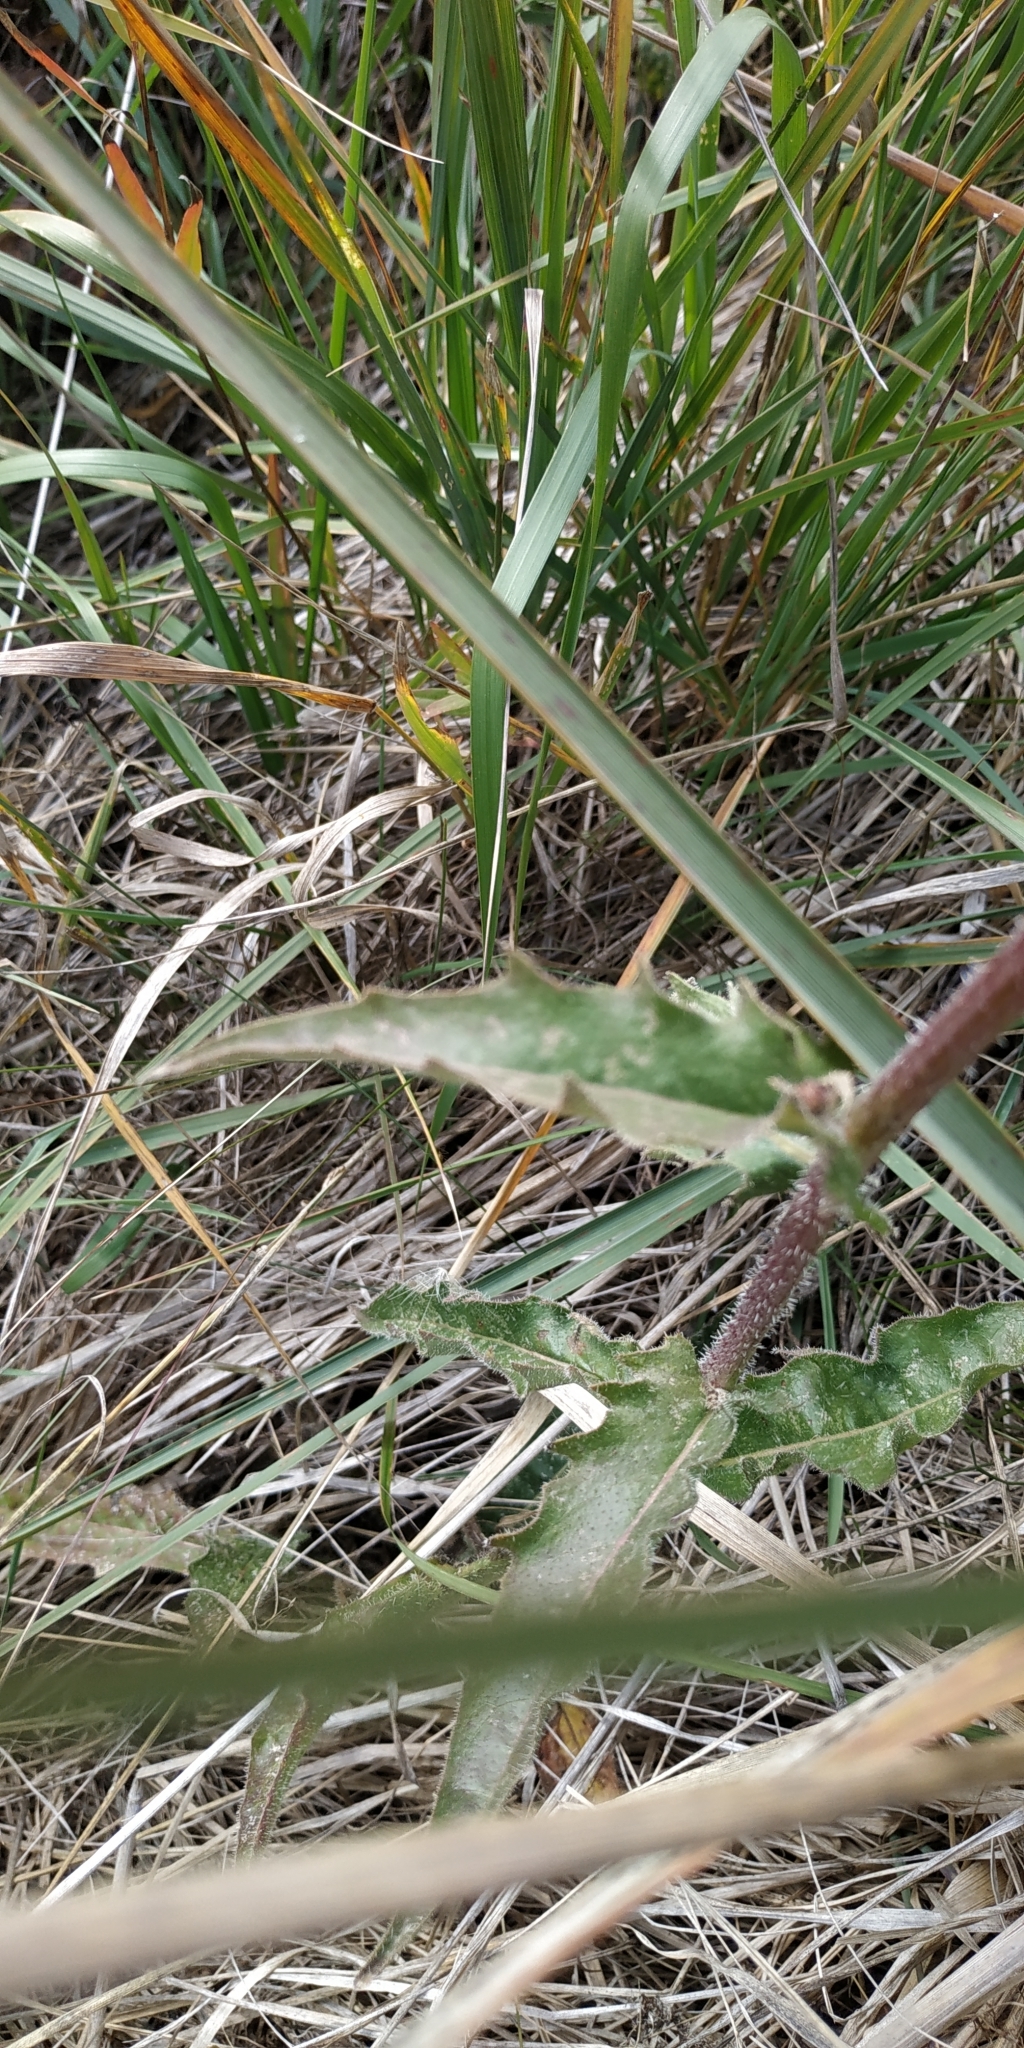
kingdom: Plantae
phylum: Tracheophyta
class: Magnoliopsida
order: Asterales
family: Asteraceae
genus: Picris
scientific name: Picris hieracioides
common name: Hawkweed oxtongue
